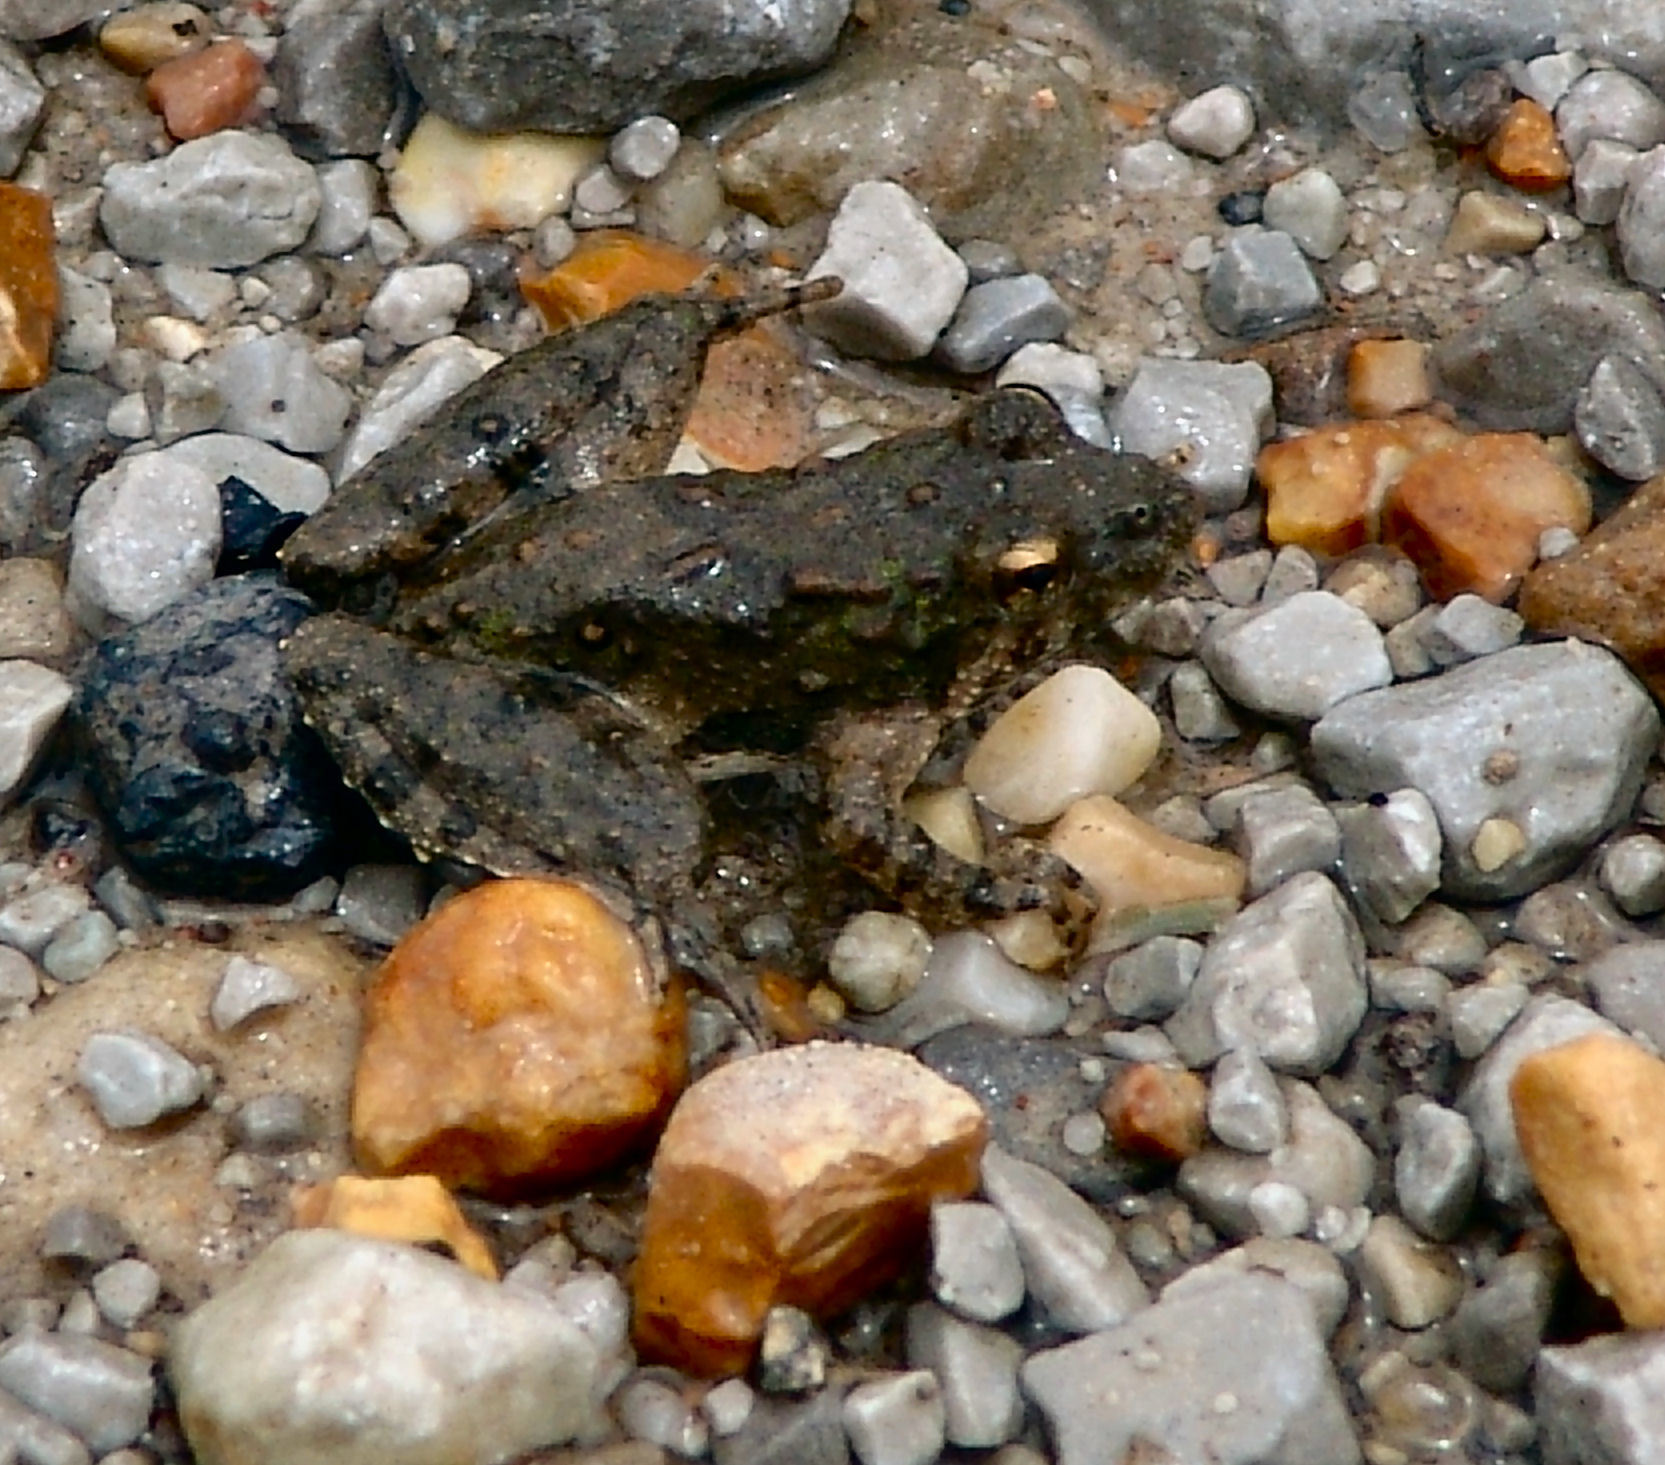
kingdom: Animalia
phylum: Chordata
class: Amphibia
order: Anura
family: Hylidae
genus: Acris
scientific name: Acris blanchardi
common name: Blanchard's cricket frog
